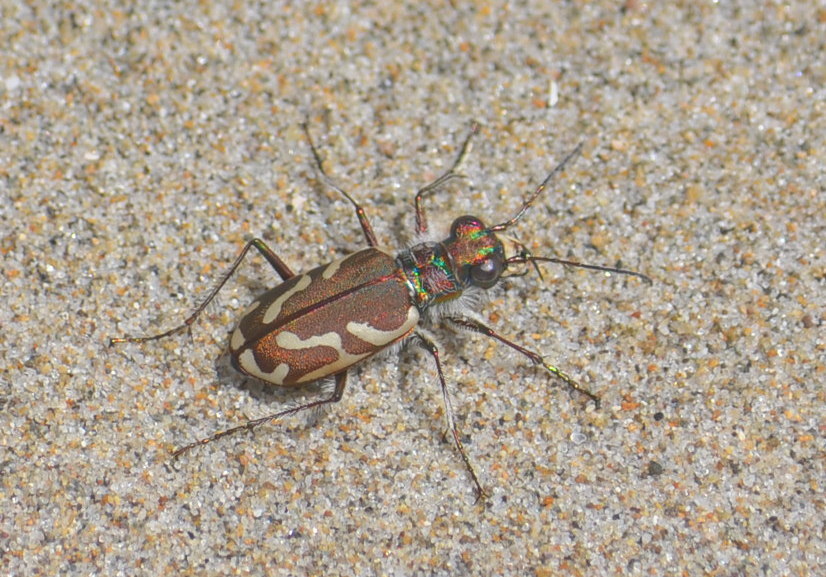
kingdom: Animalia
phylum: Arthropoda
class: Insecta
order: Coleoptera
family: Carabidae
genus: Cicindela
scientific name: Cicindela bellissima
